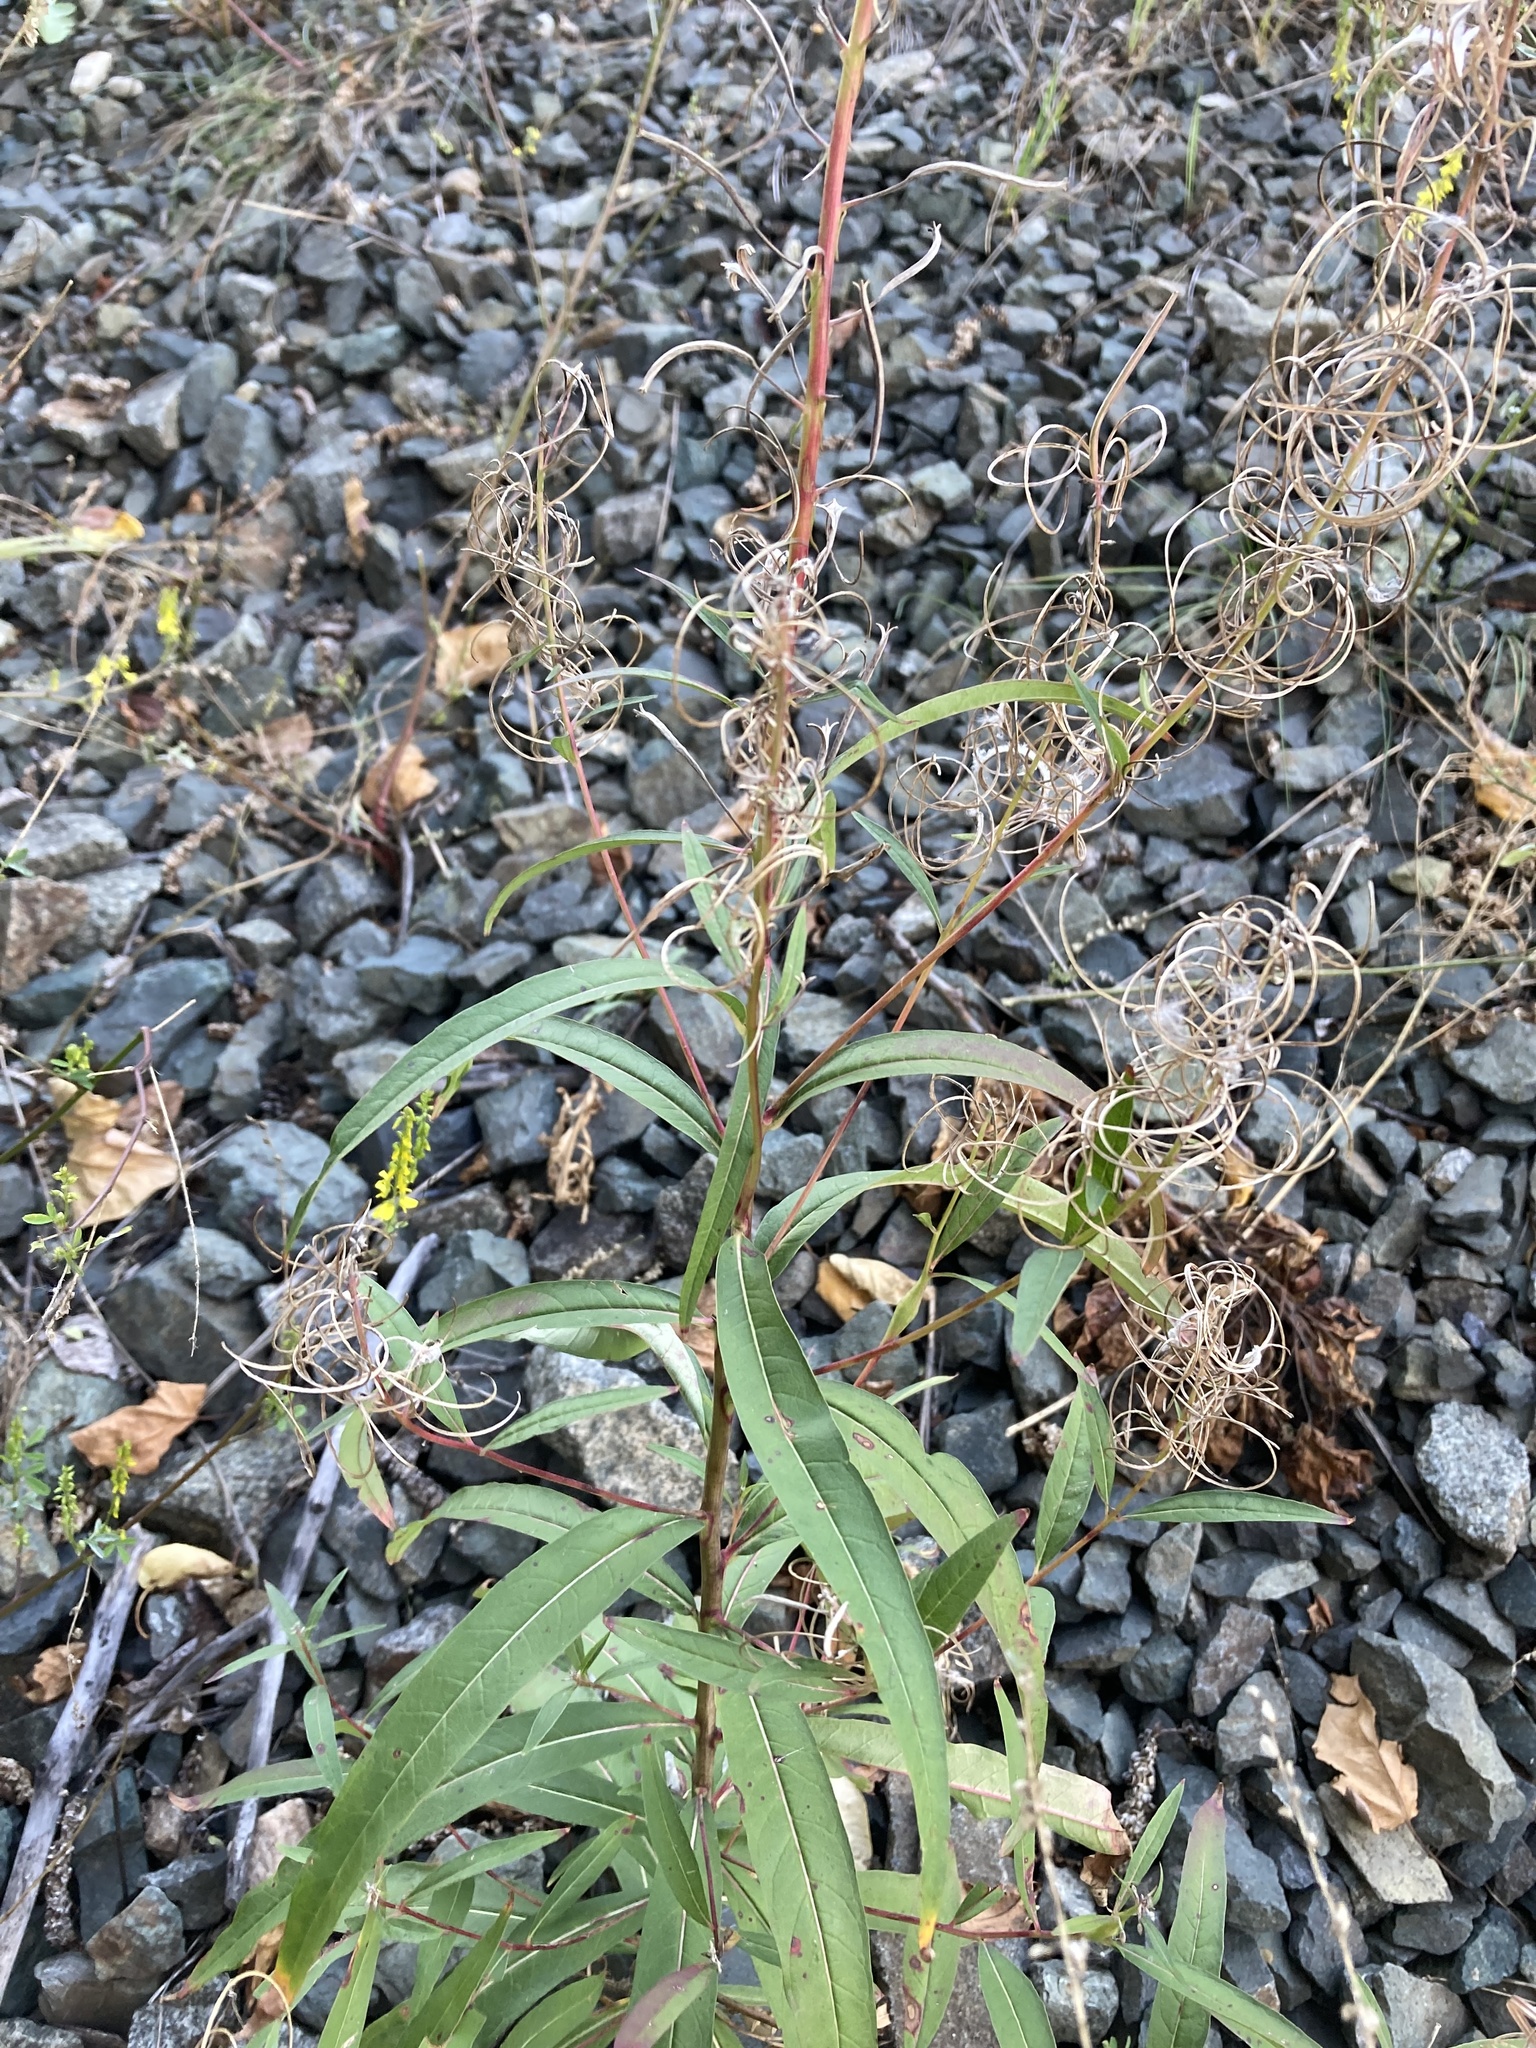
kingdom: Plantae
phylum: Tracheophyta
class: Magnoliopsida
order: Myrtales
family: Onagraceae
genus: Chamaenerion
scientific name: Chamaenerion angustifolium
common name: Fireweed
